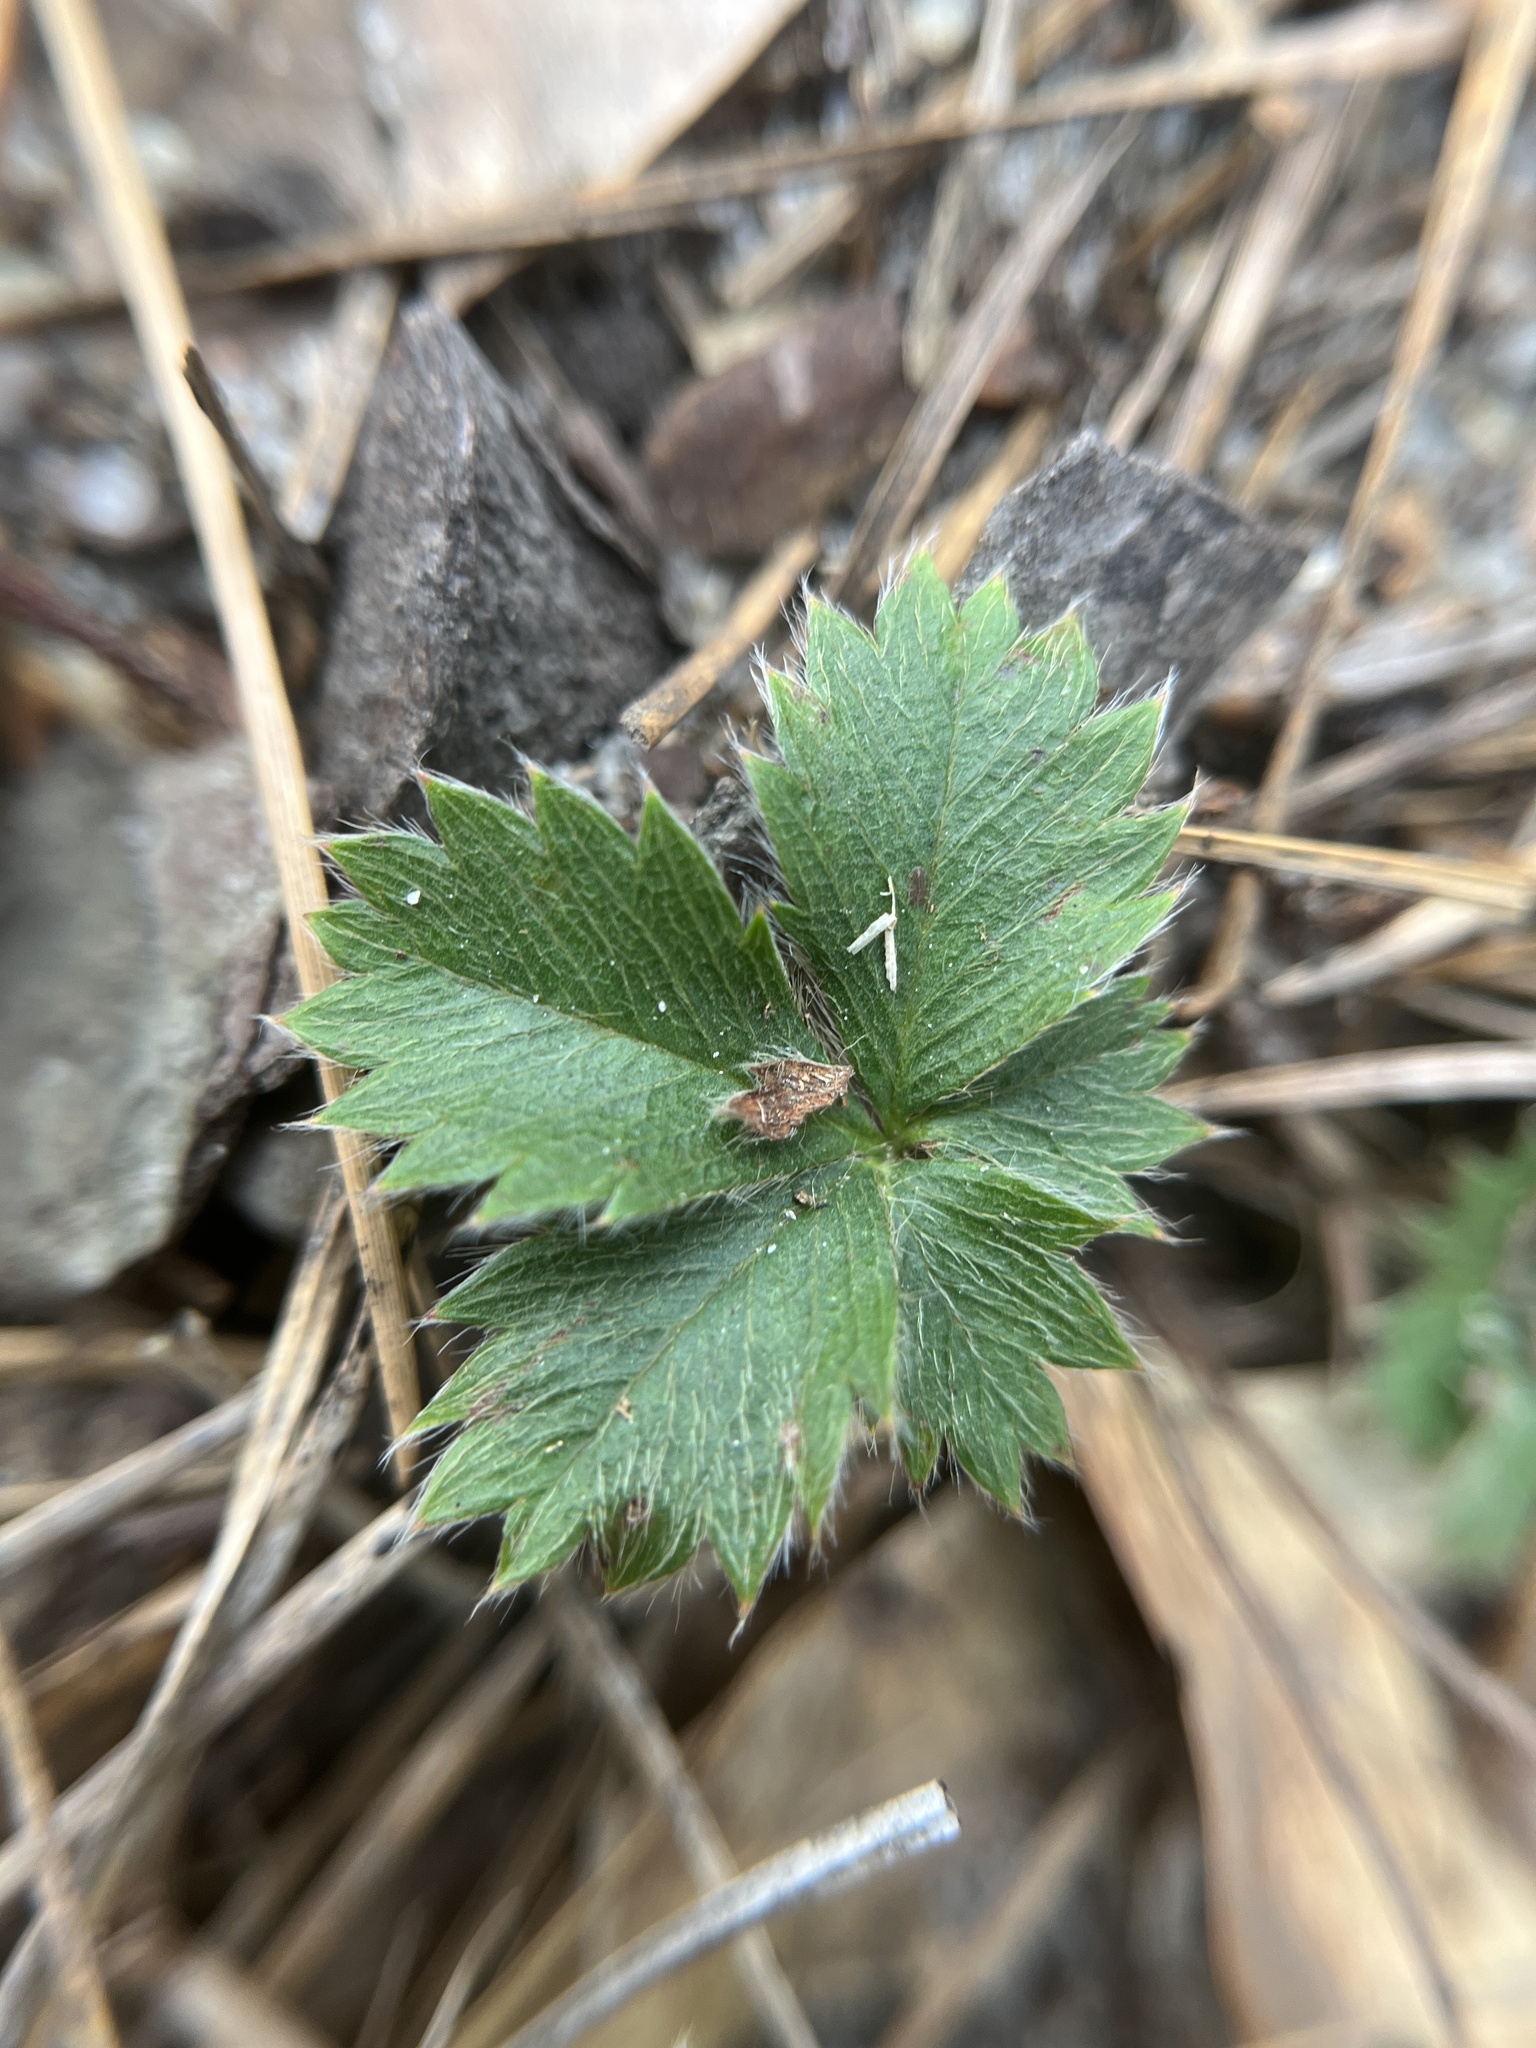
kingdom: Plantae
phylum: Tracheophyta
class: Magnoliopsida
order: Rosales
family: Rosaceae
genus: Potentilla
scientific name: Potentilla canadensis
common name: Canada cinquefoil
